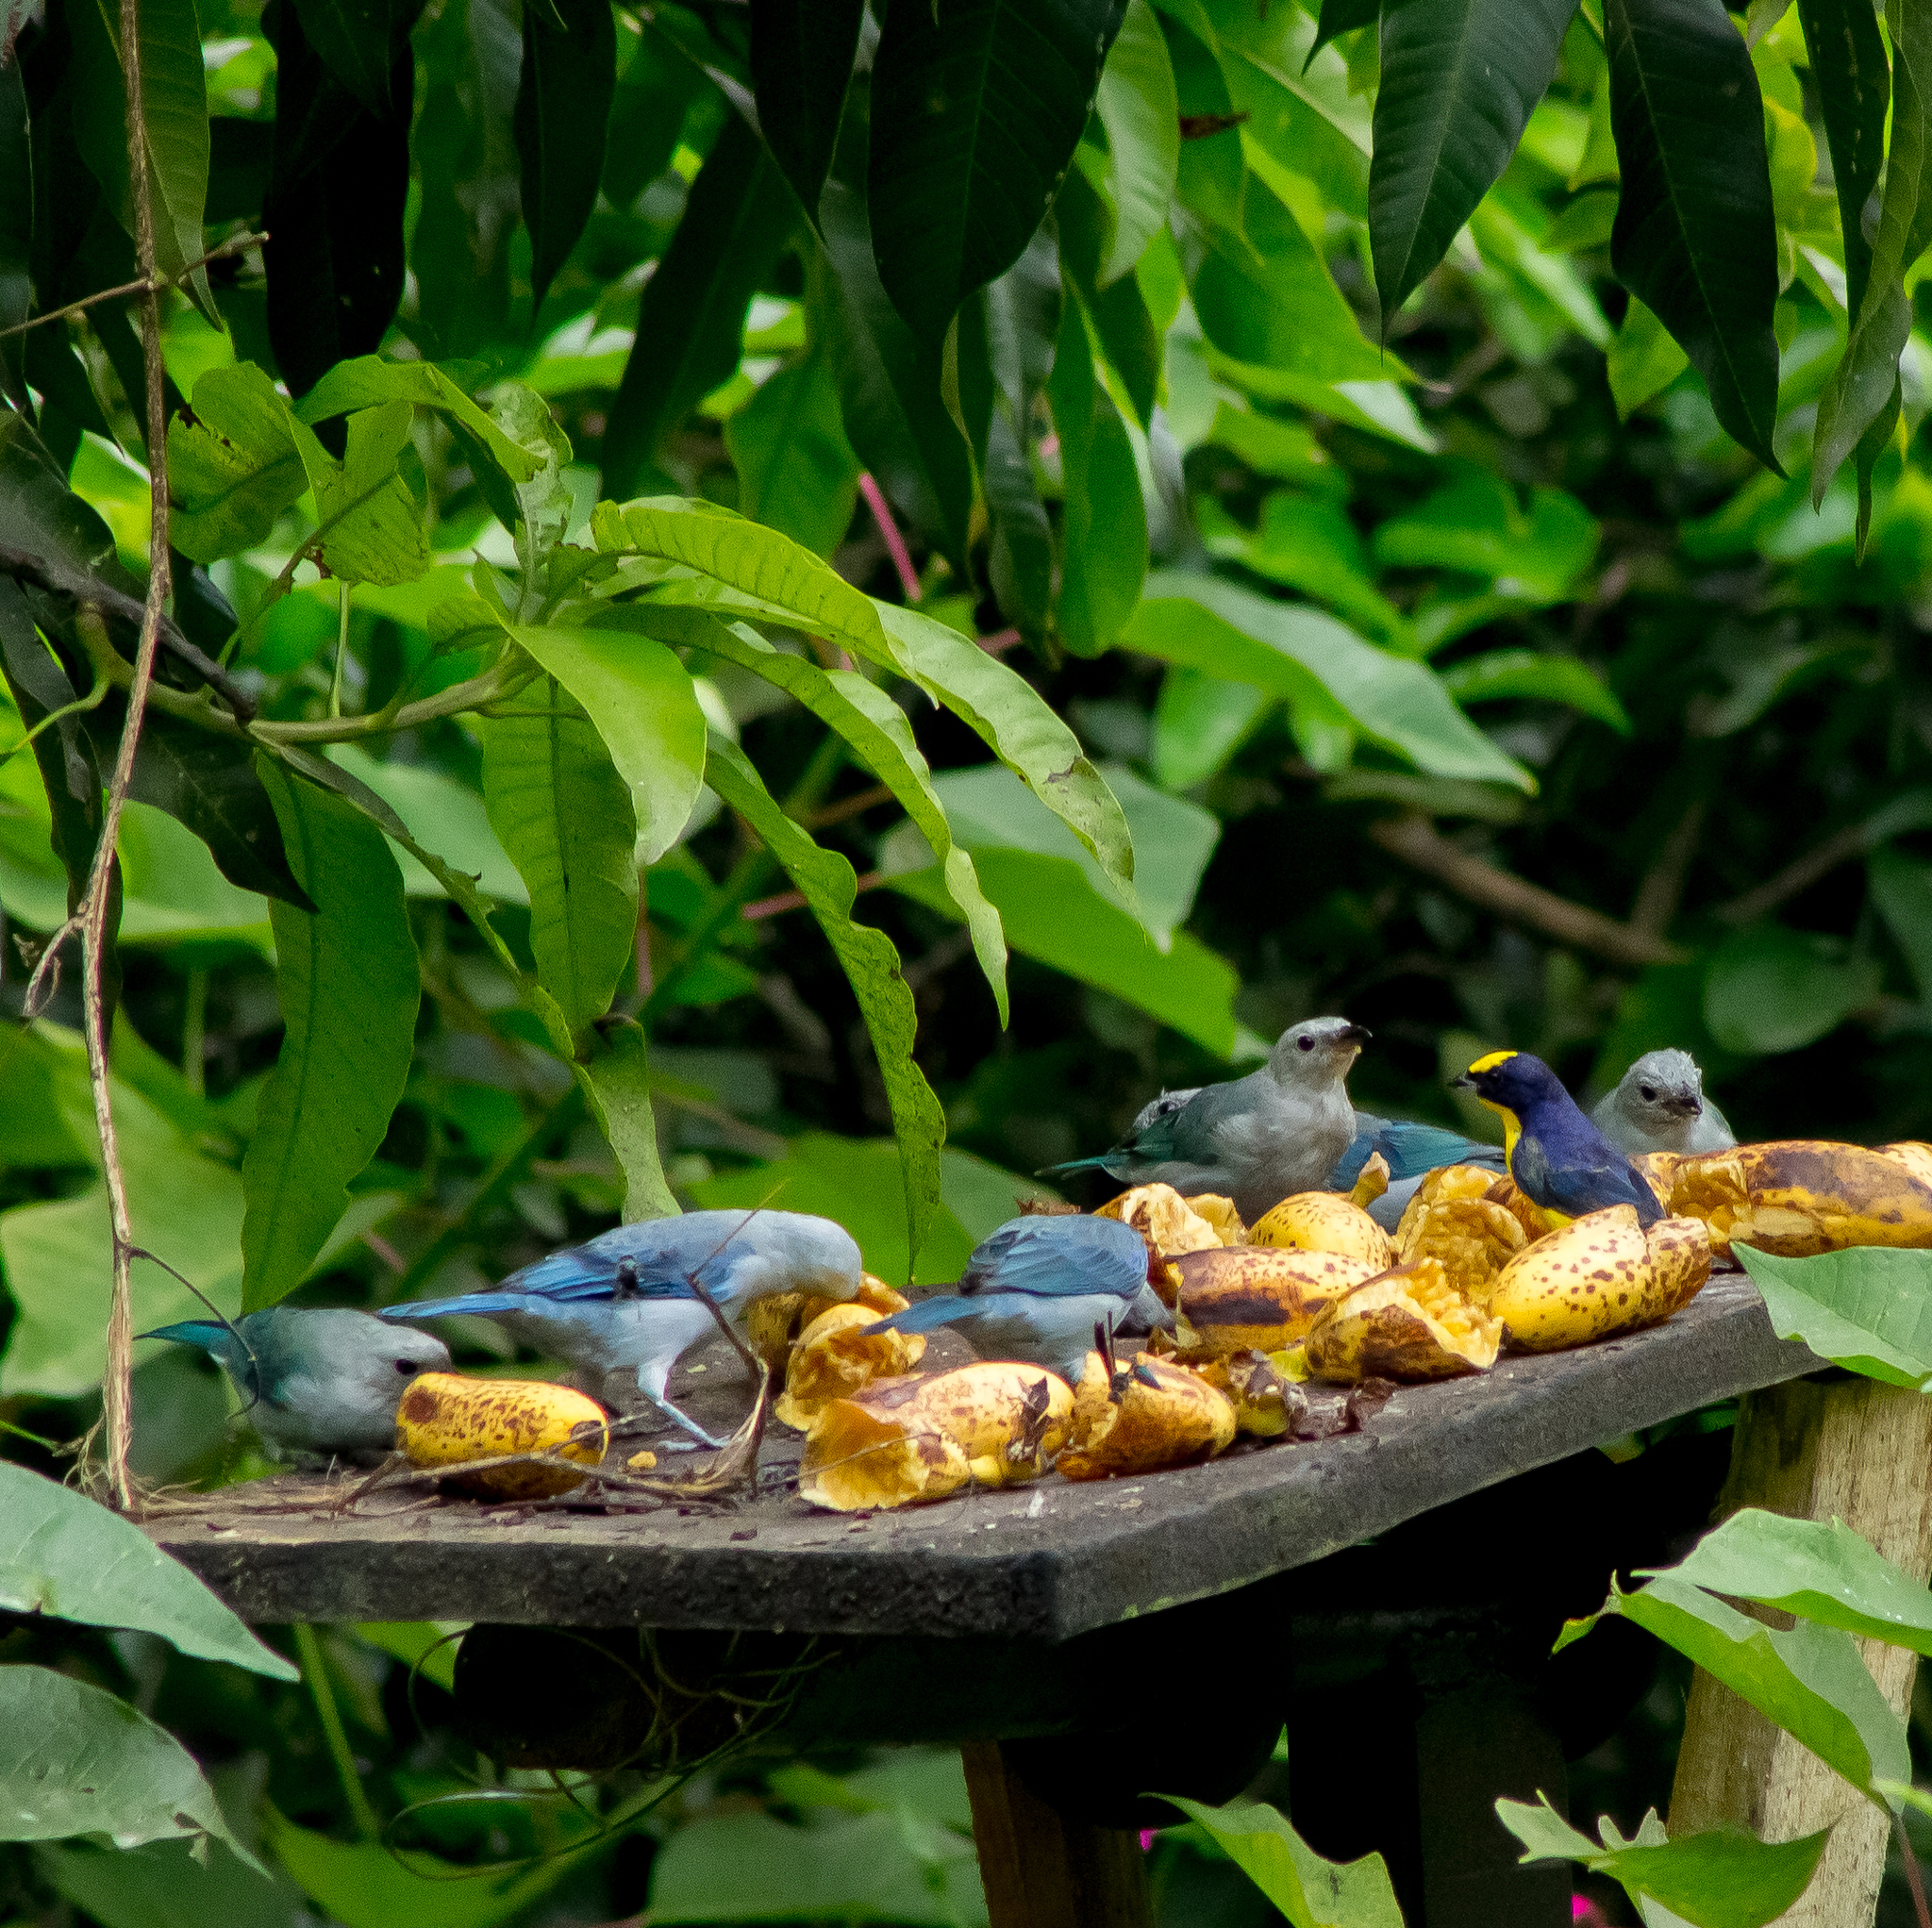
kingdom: Animalia
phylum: Chordata
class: Aves
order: Passeriformes
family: Fringillidae
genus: Euphonia
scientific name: Euphonia laniirostris
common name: Thick-billed euphonia
